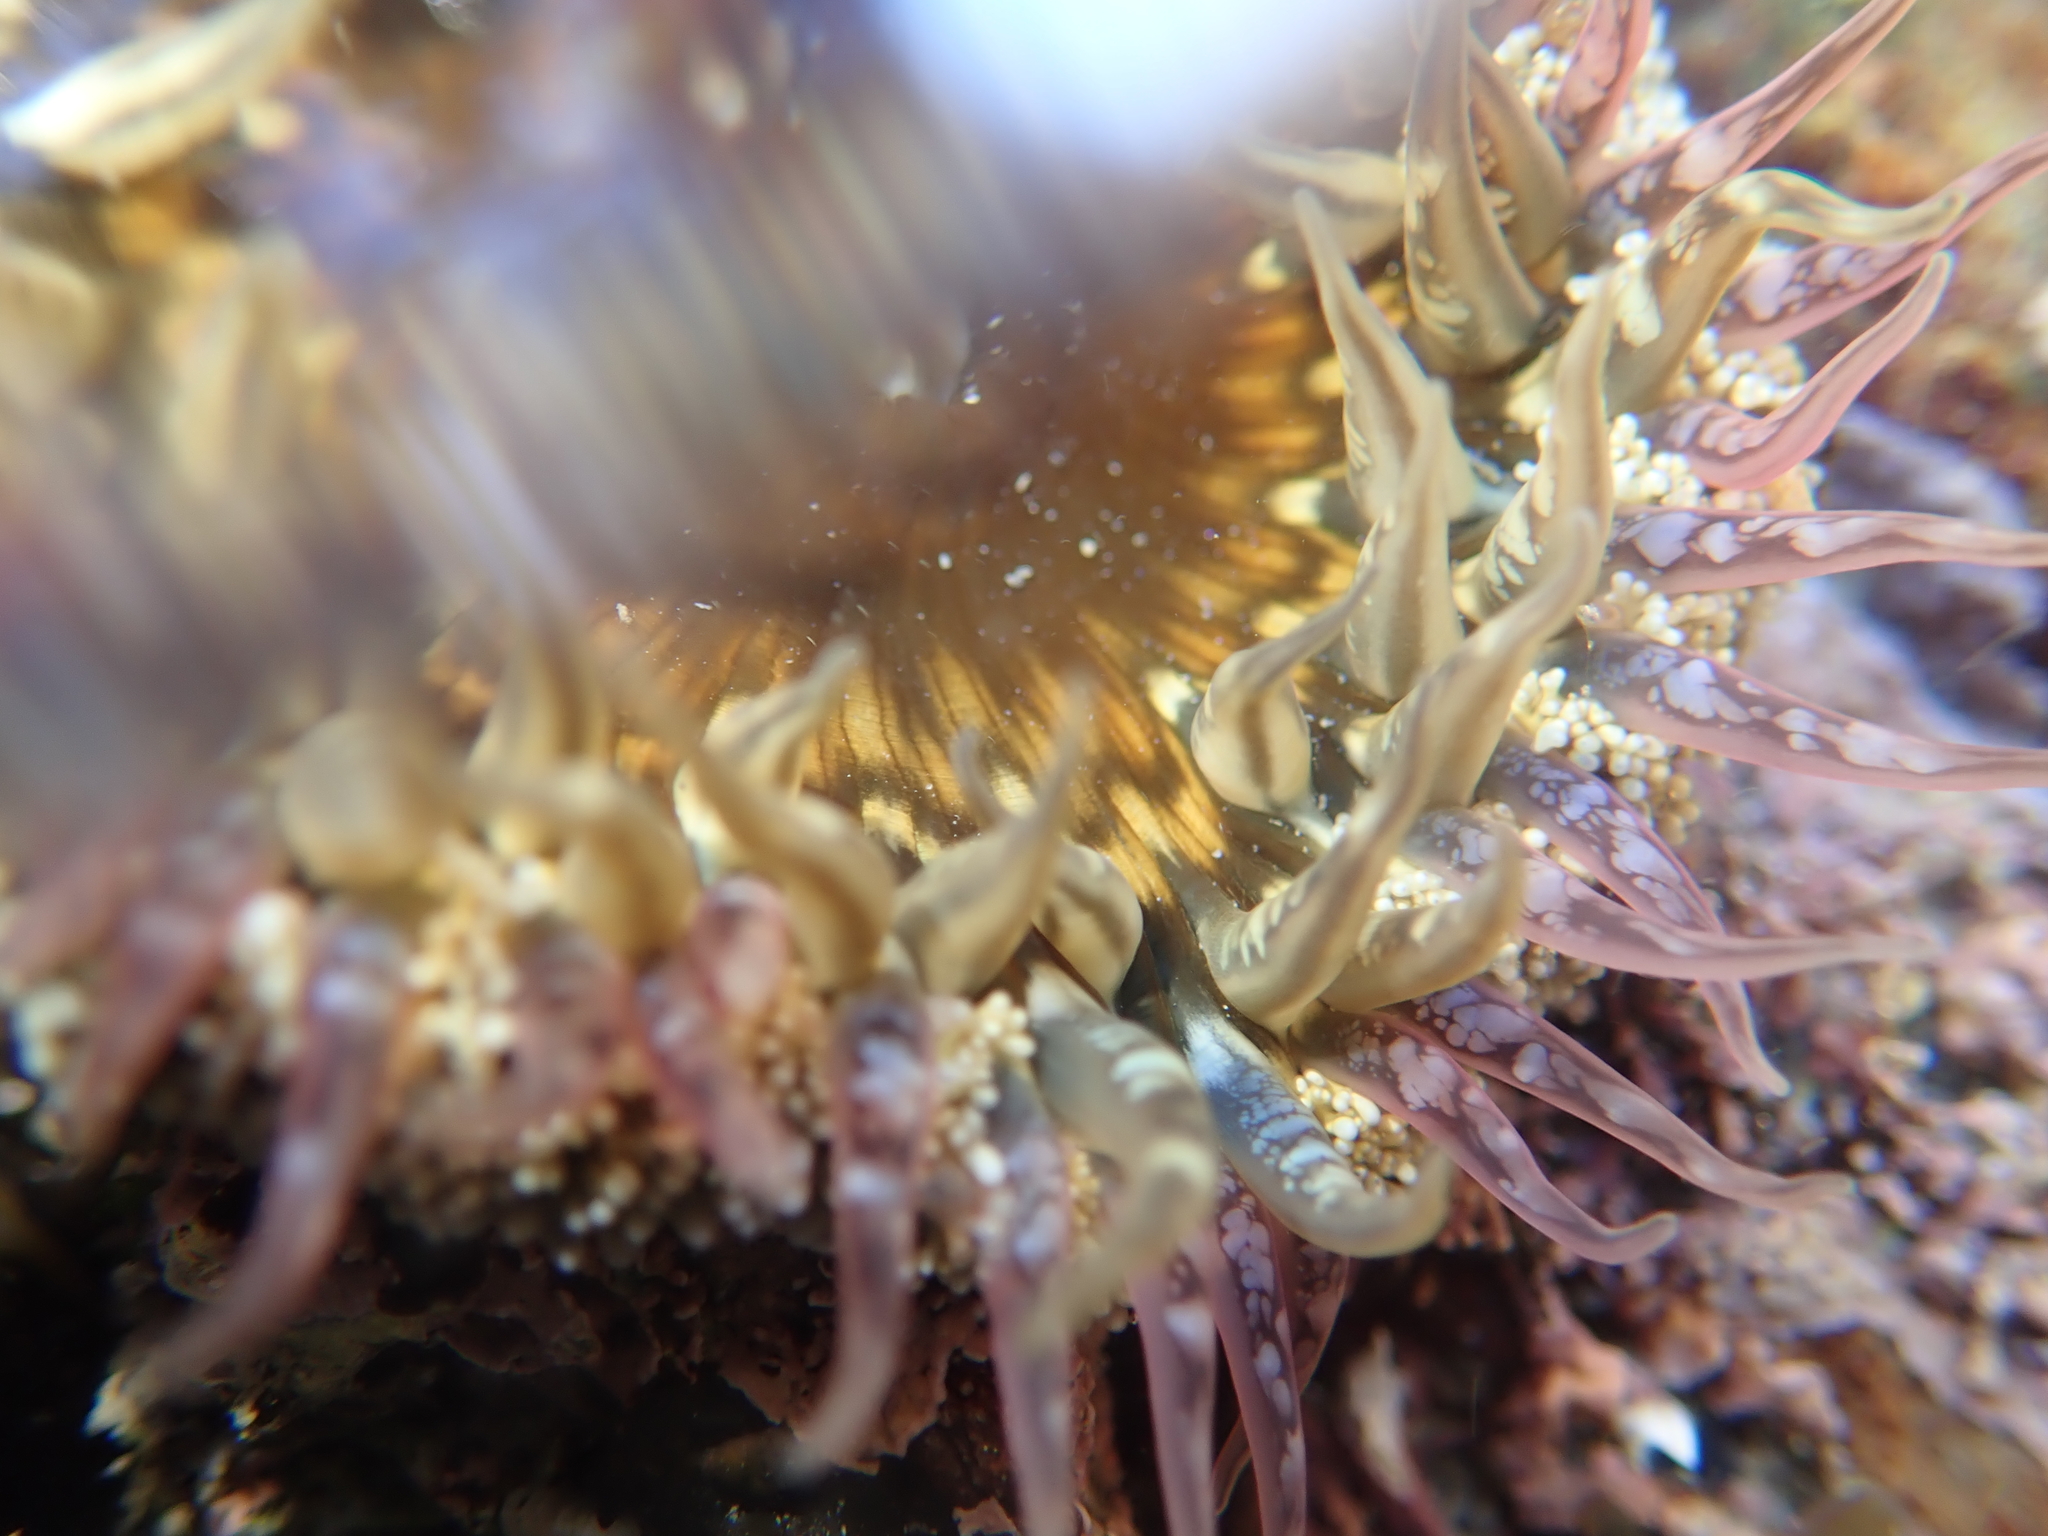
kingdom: Animalia
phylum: Cnidaria
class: Anthozoa
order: Actiniaria
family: Actiniidae
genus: Oulactis
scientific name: Oulactis muscosa
